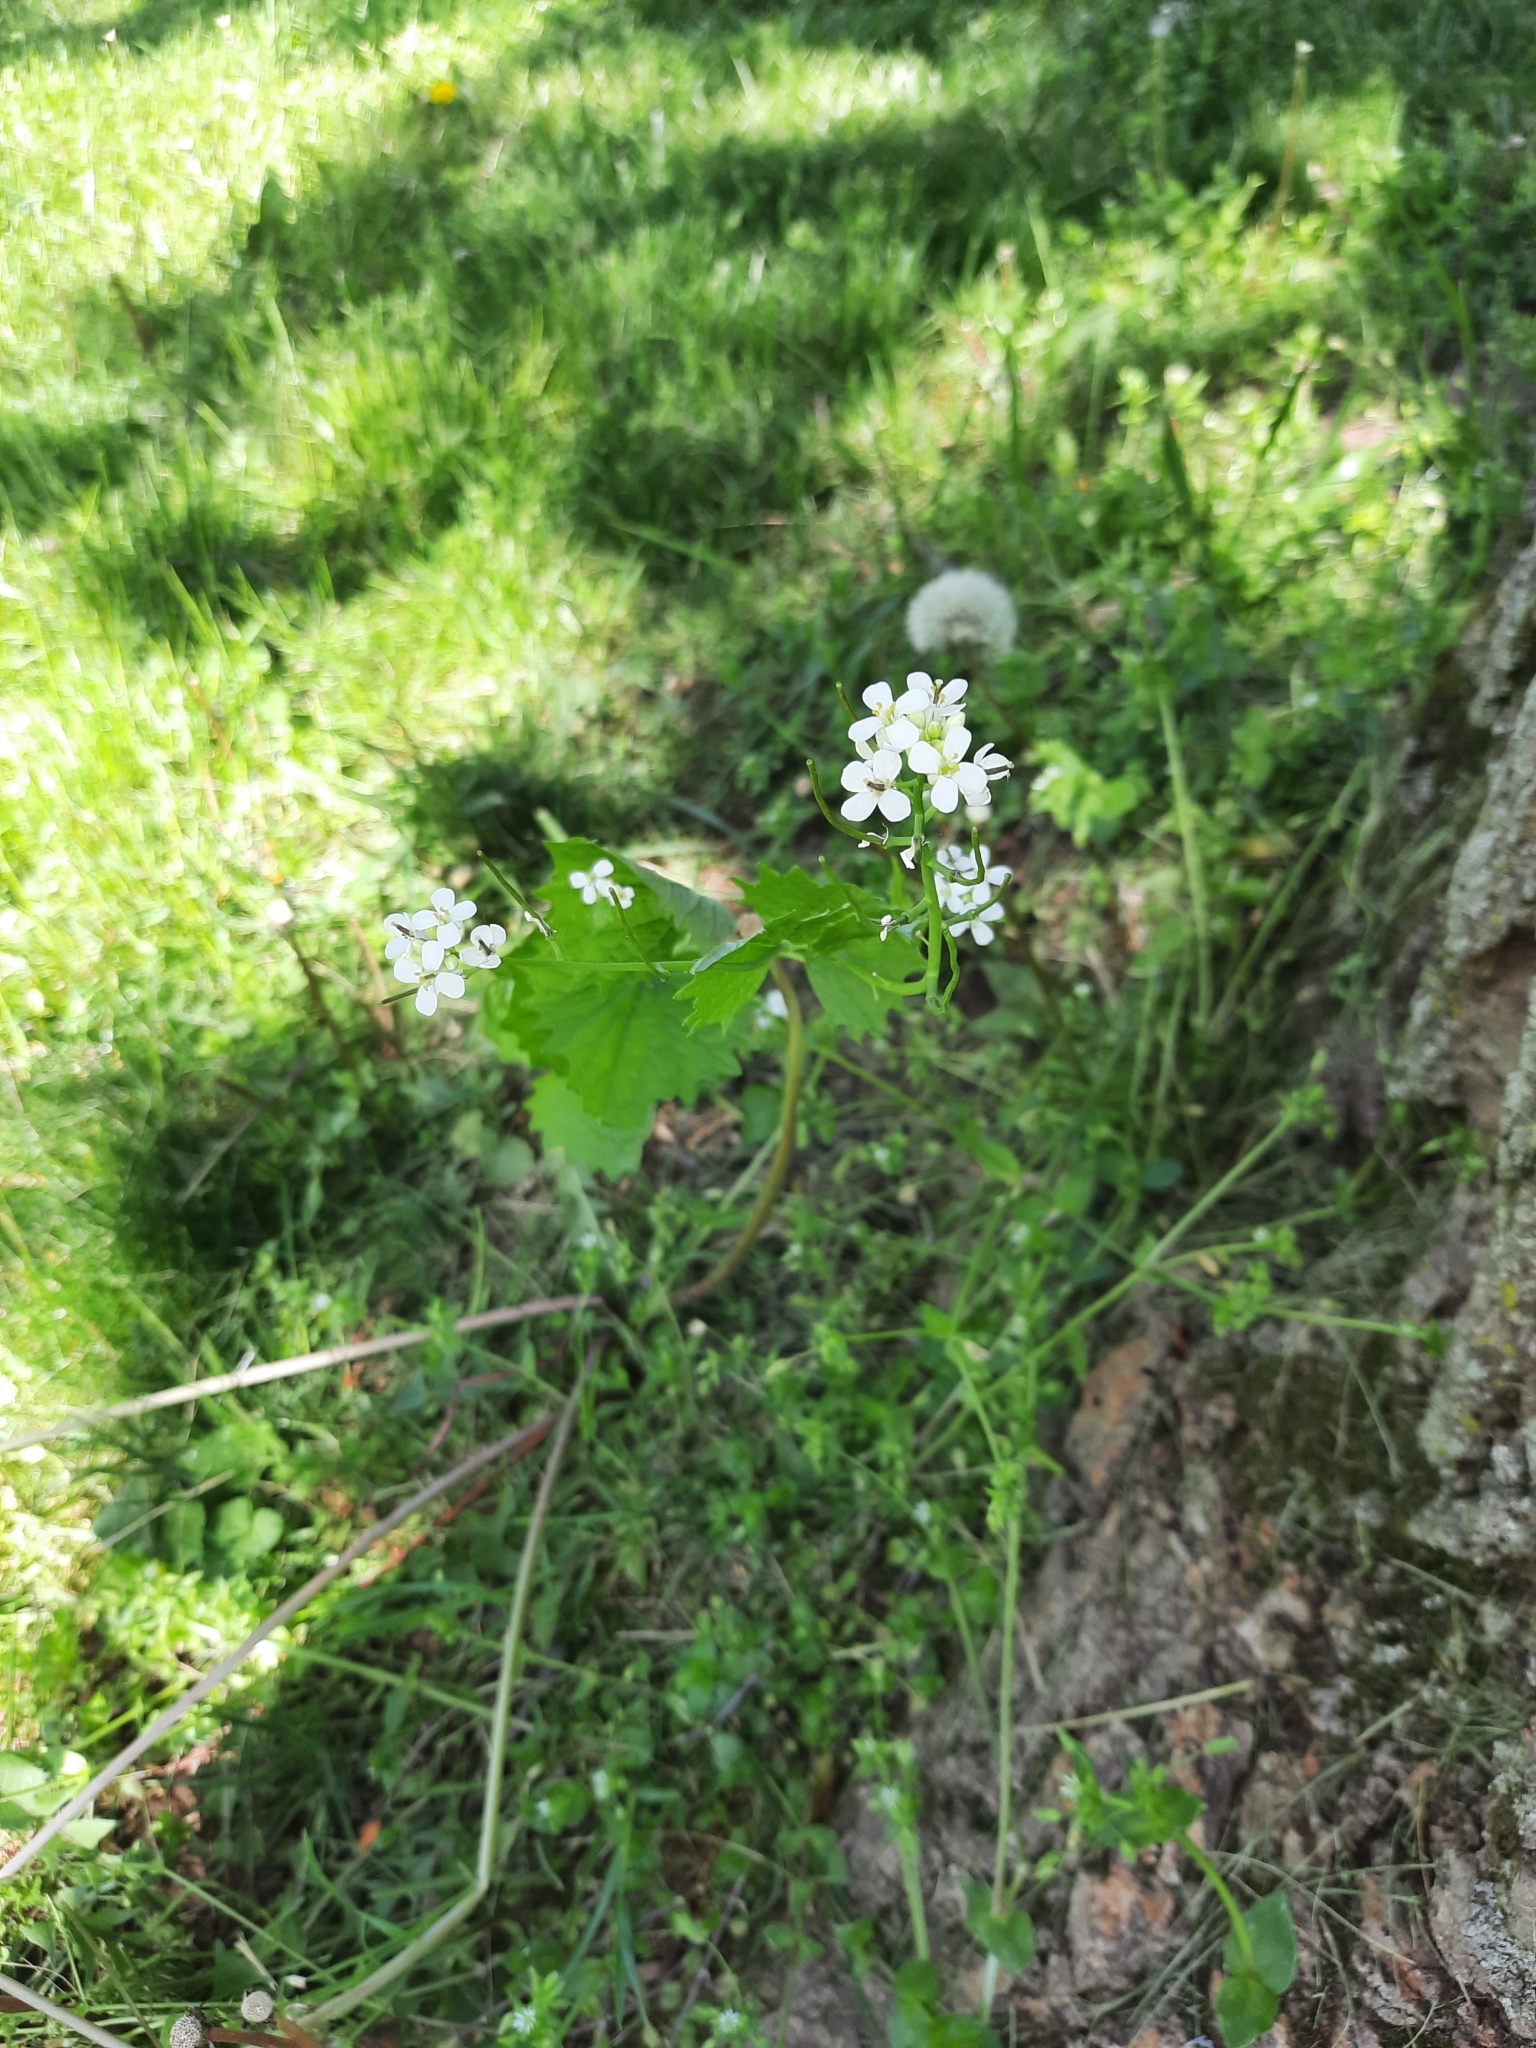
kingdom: Plantae
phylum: Tracheophyta
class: Magnoliopsida
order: Brassicales
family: Brassicaceae
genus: Alliaria
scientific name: Alliaria petiolata
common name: Garlic mustard
